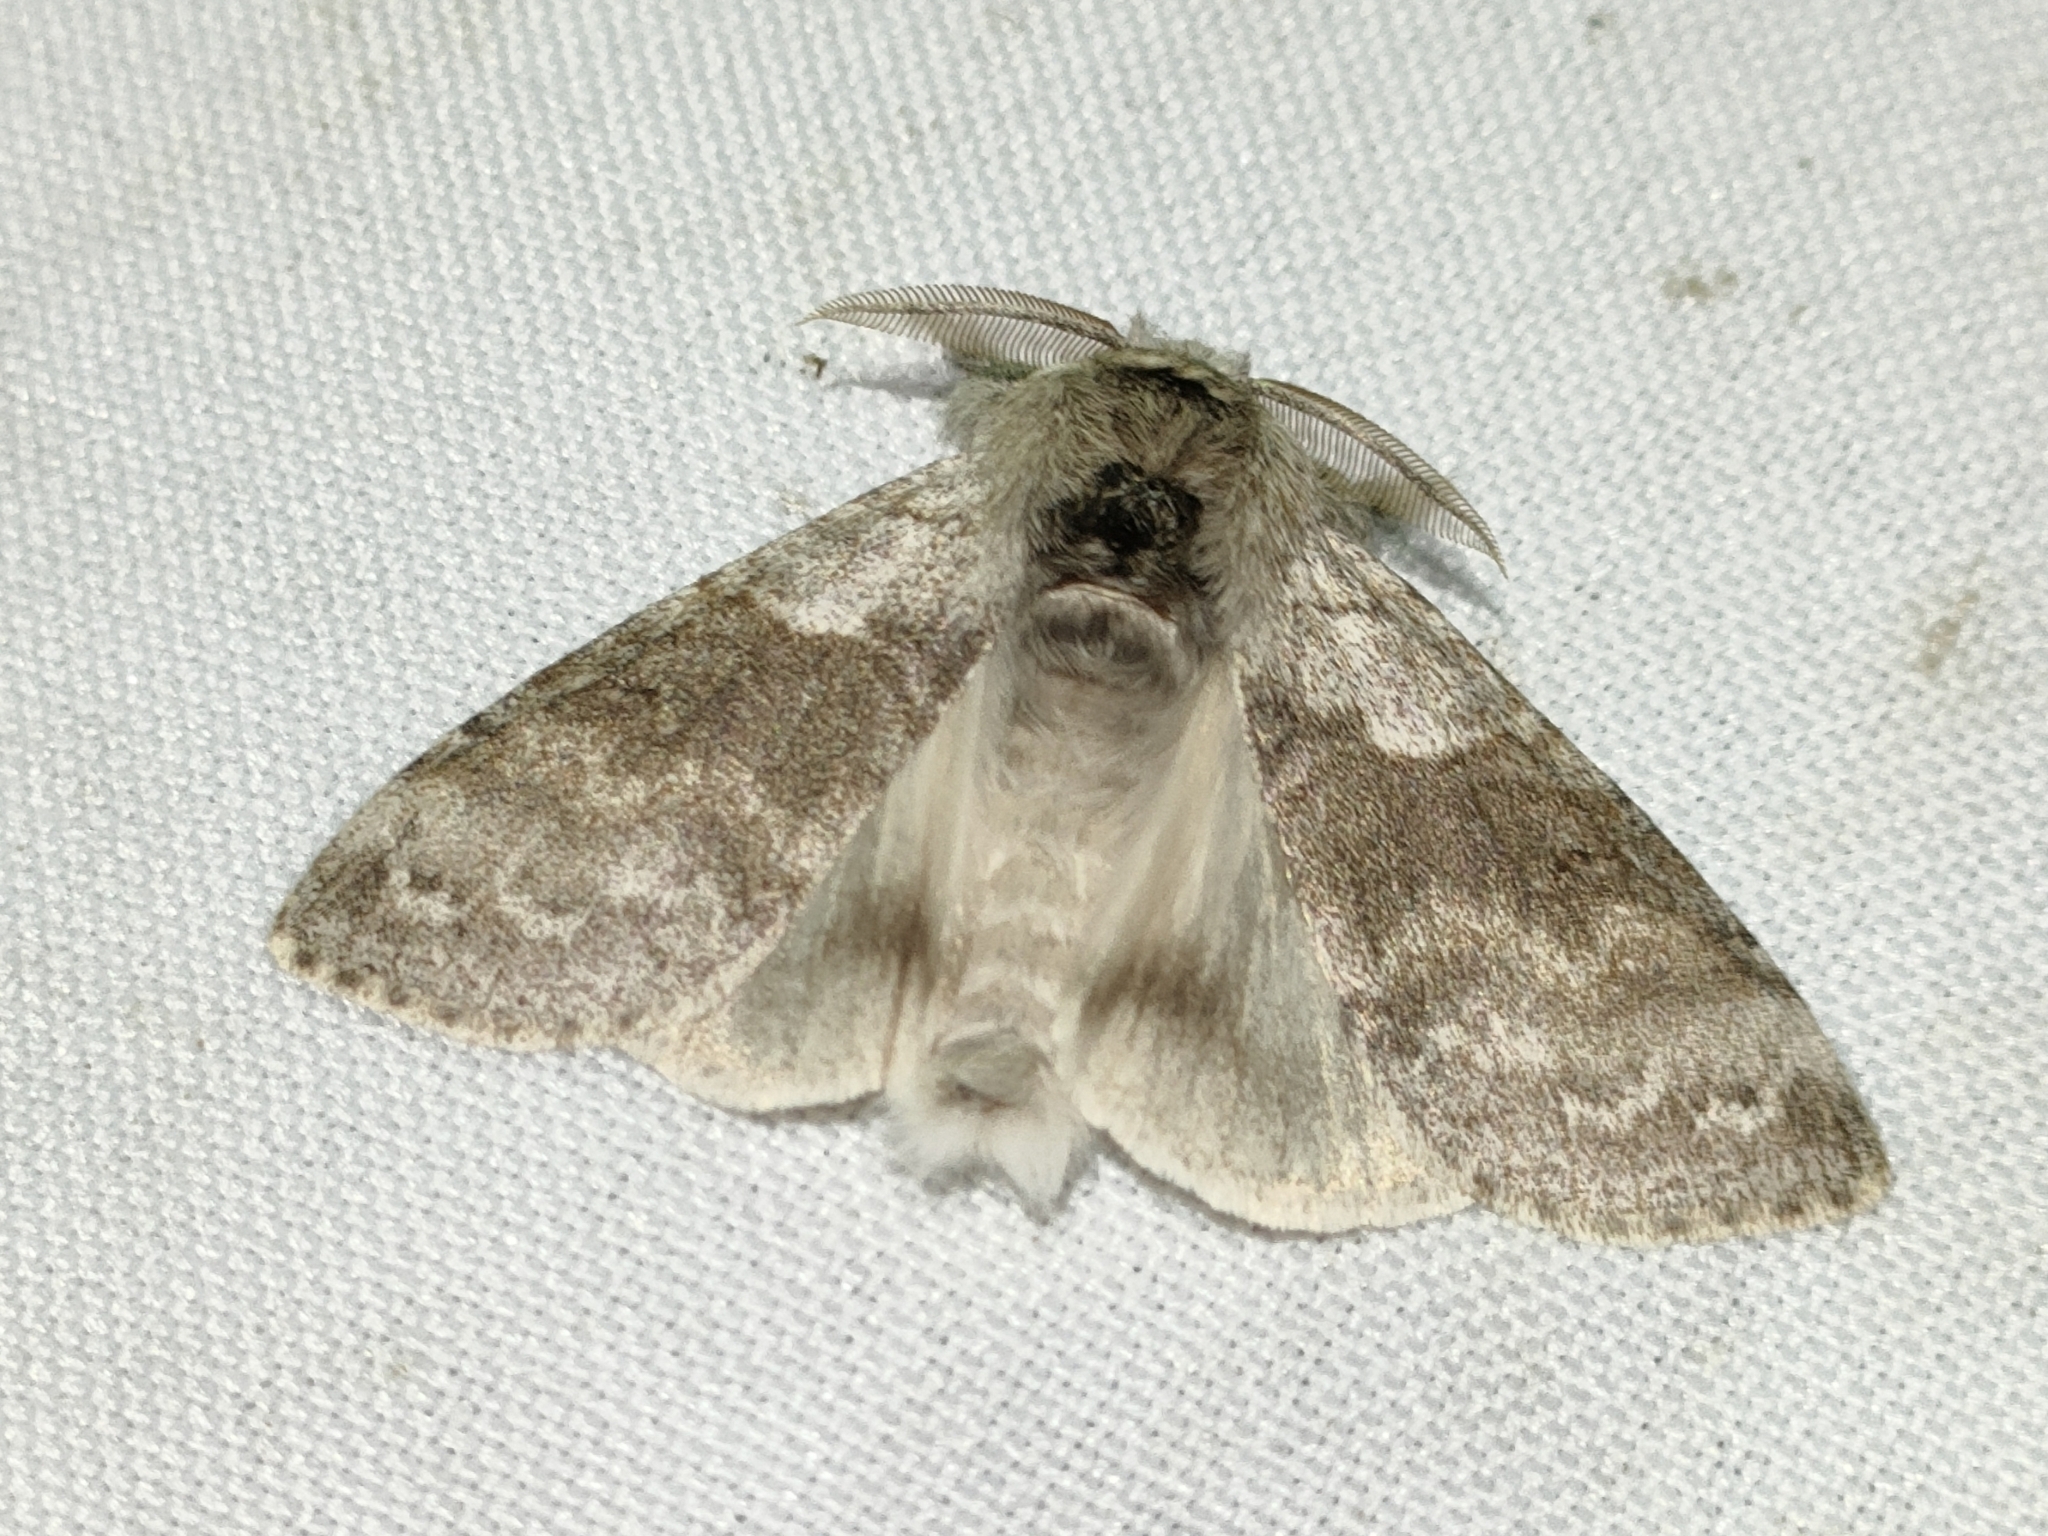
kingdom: Animalia
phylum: Arthropoda
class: Insecta
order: Lepidoptera
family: Erebidae
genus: Calliteara
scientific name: Calliteara pudibunda
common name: Pale tussock
